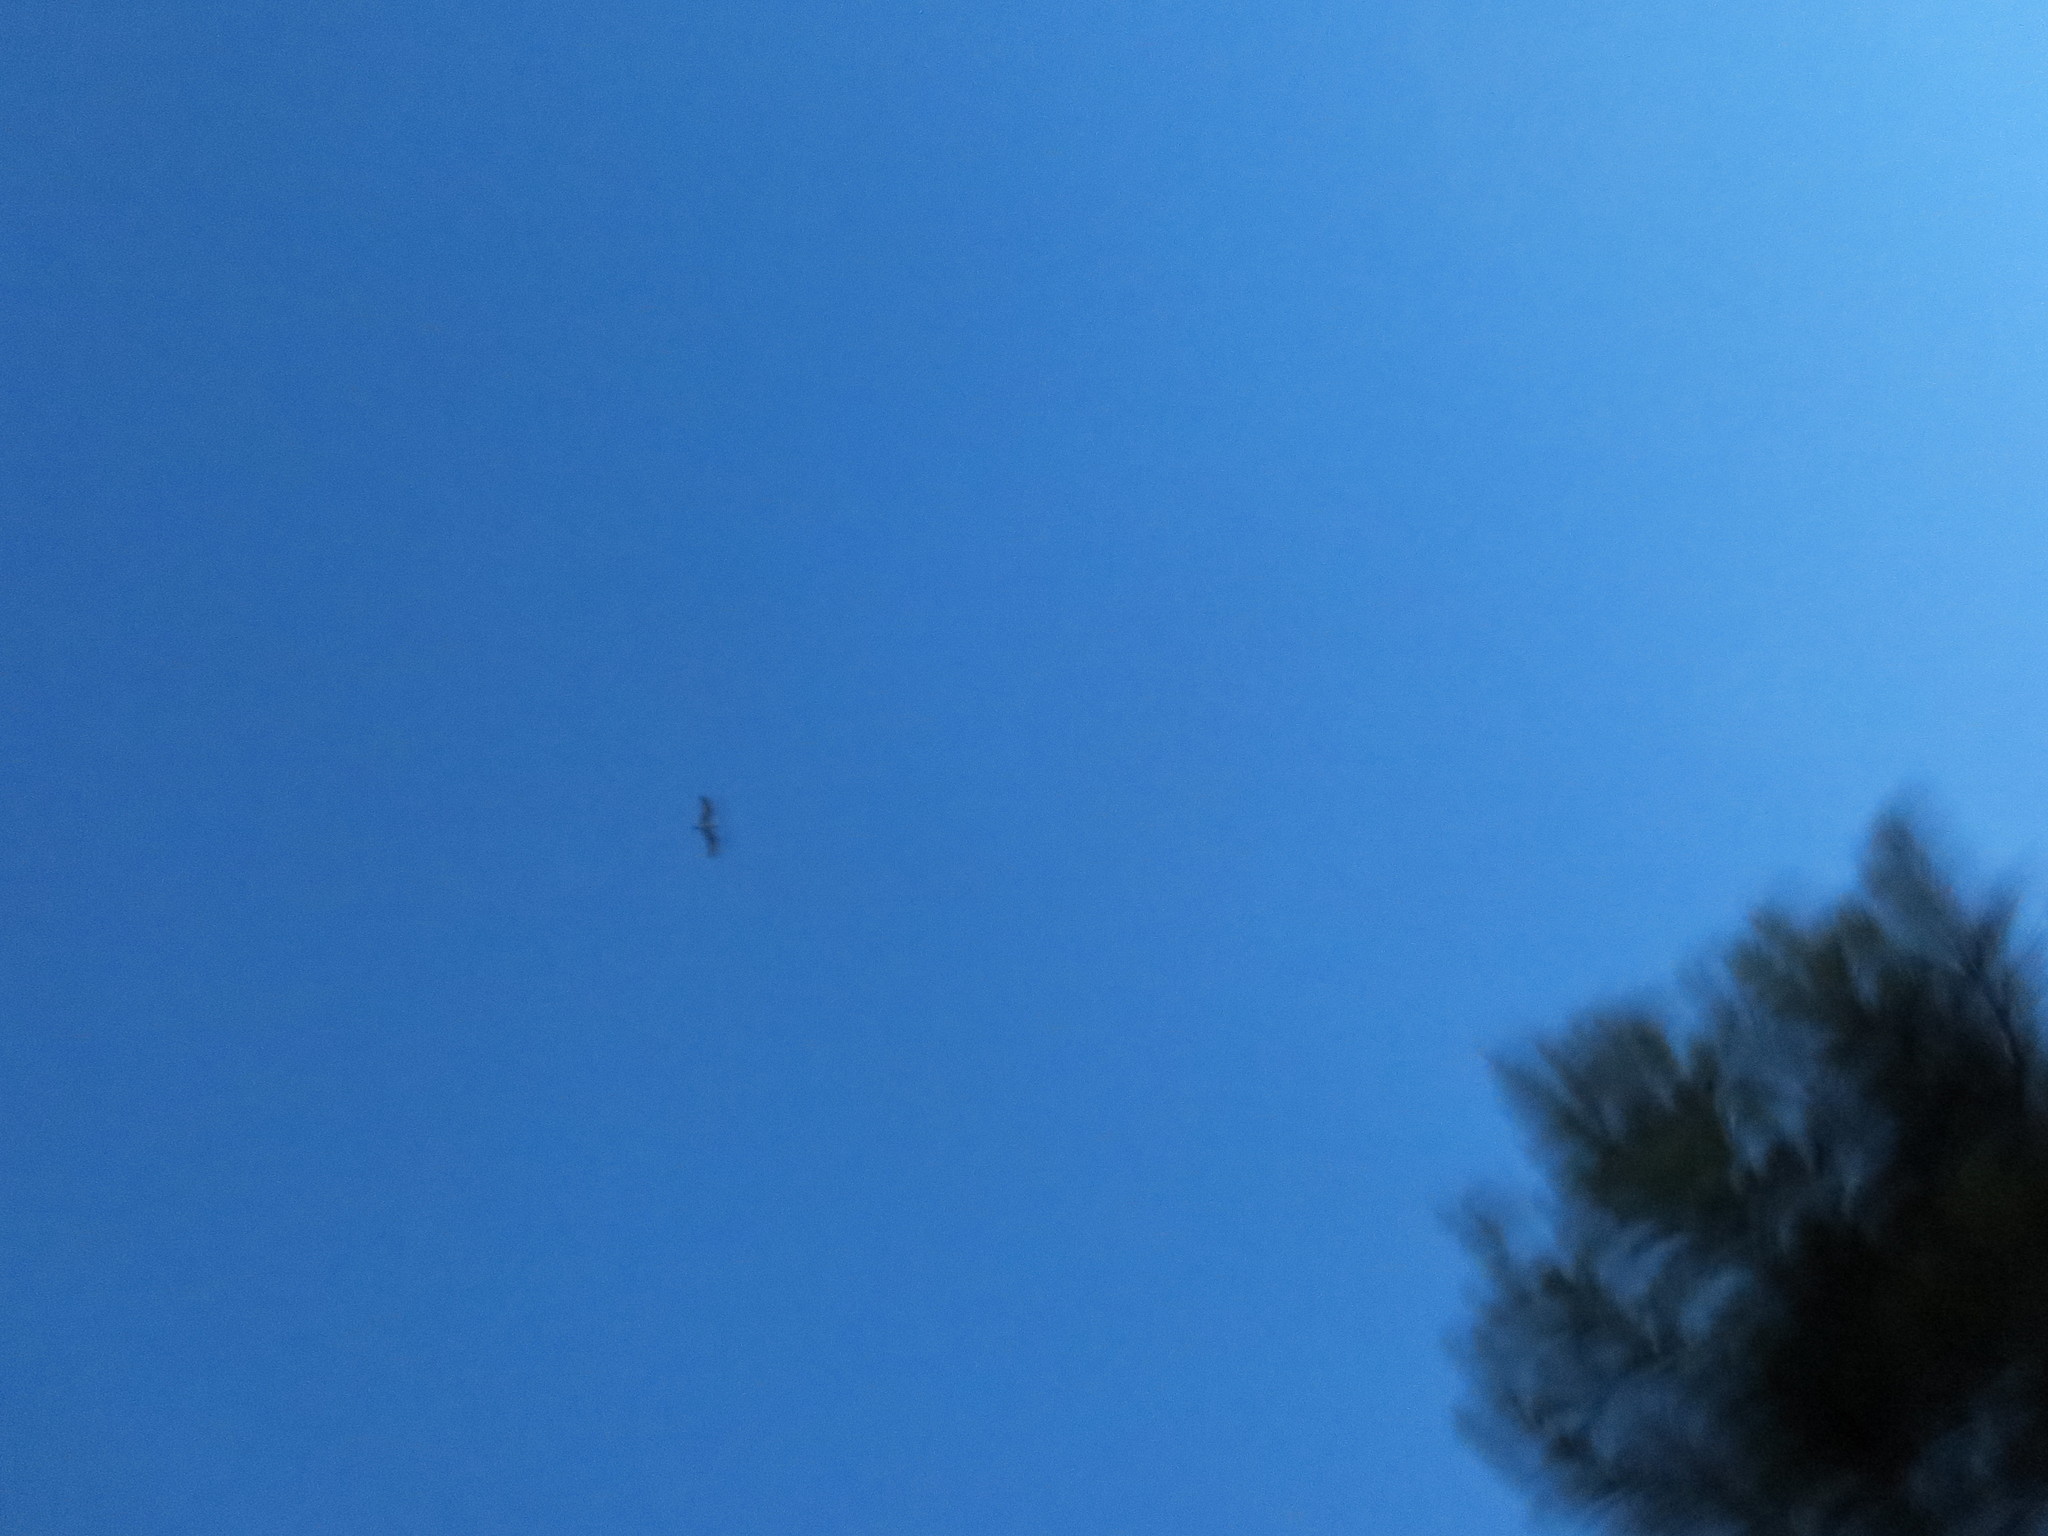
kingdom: Animalia
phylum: Chordata
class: Aves
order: Accipitriformes
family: Pandionidae
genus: Pandion
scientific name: Pandion haliaetus
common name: Osprey
